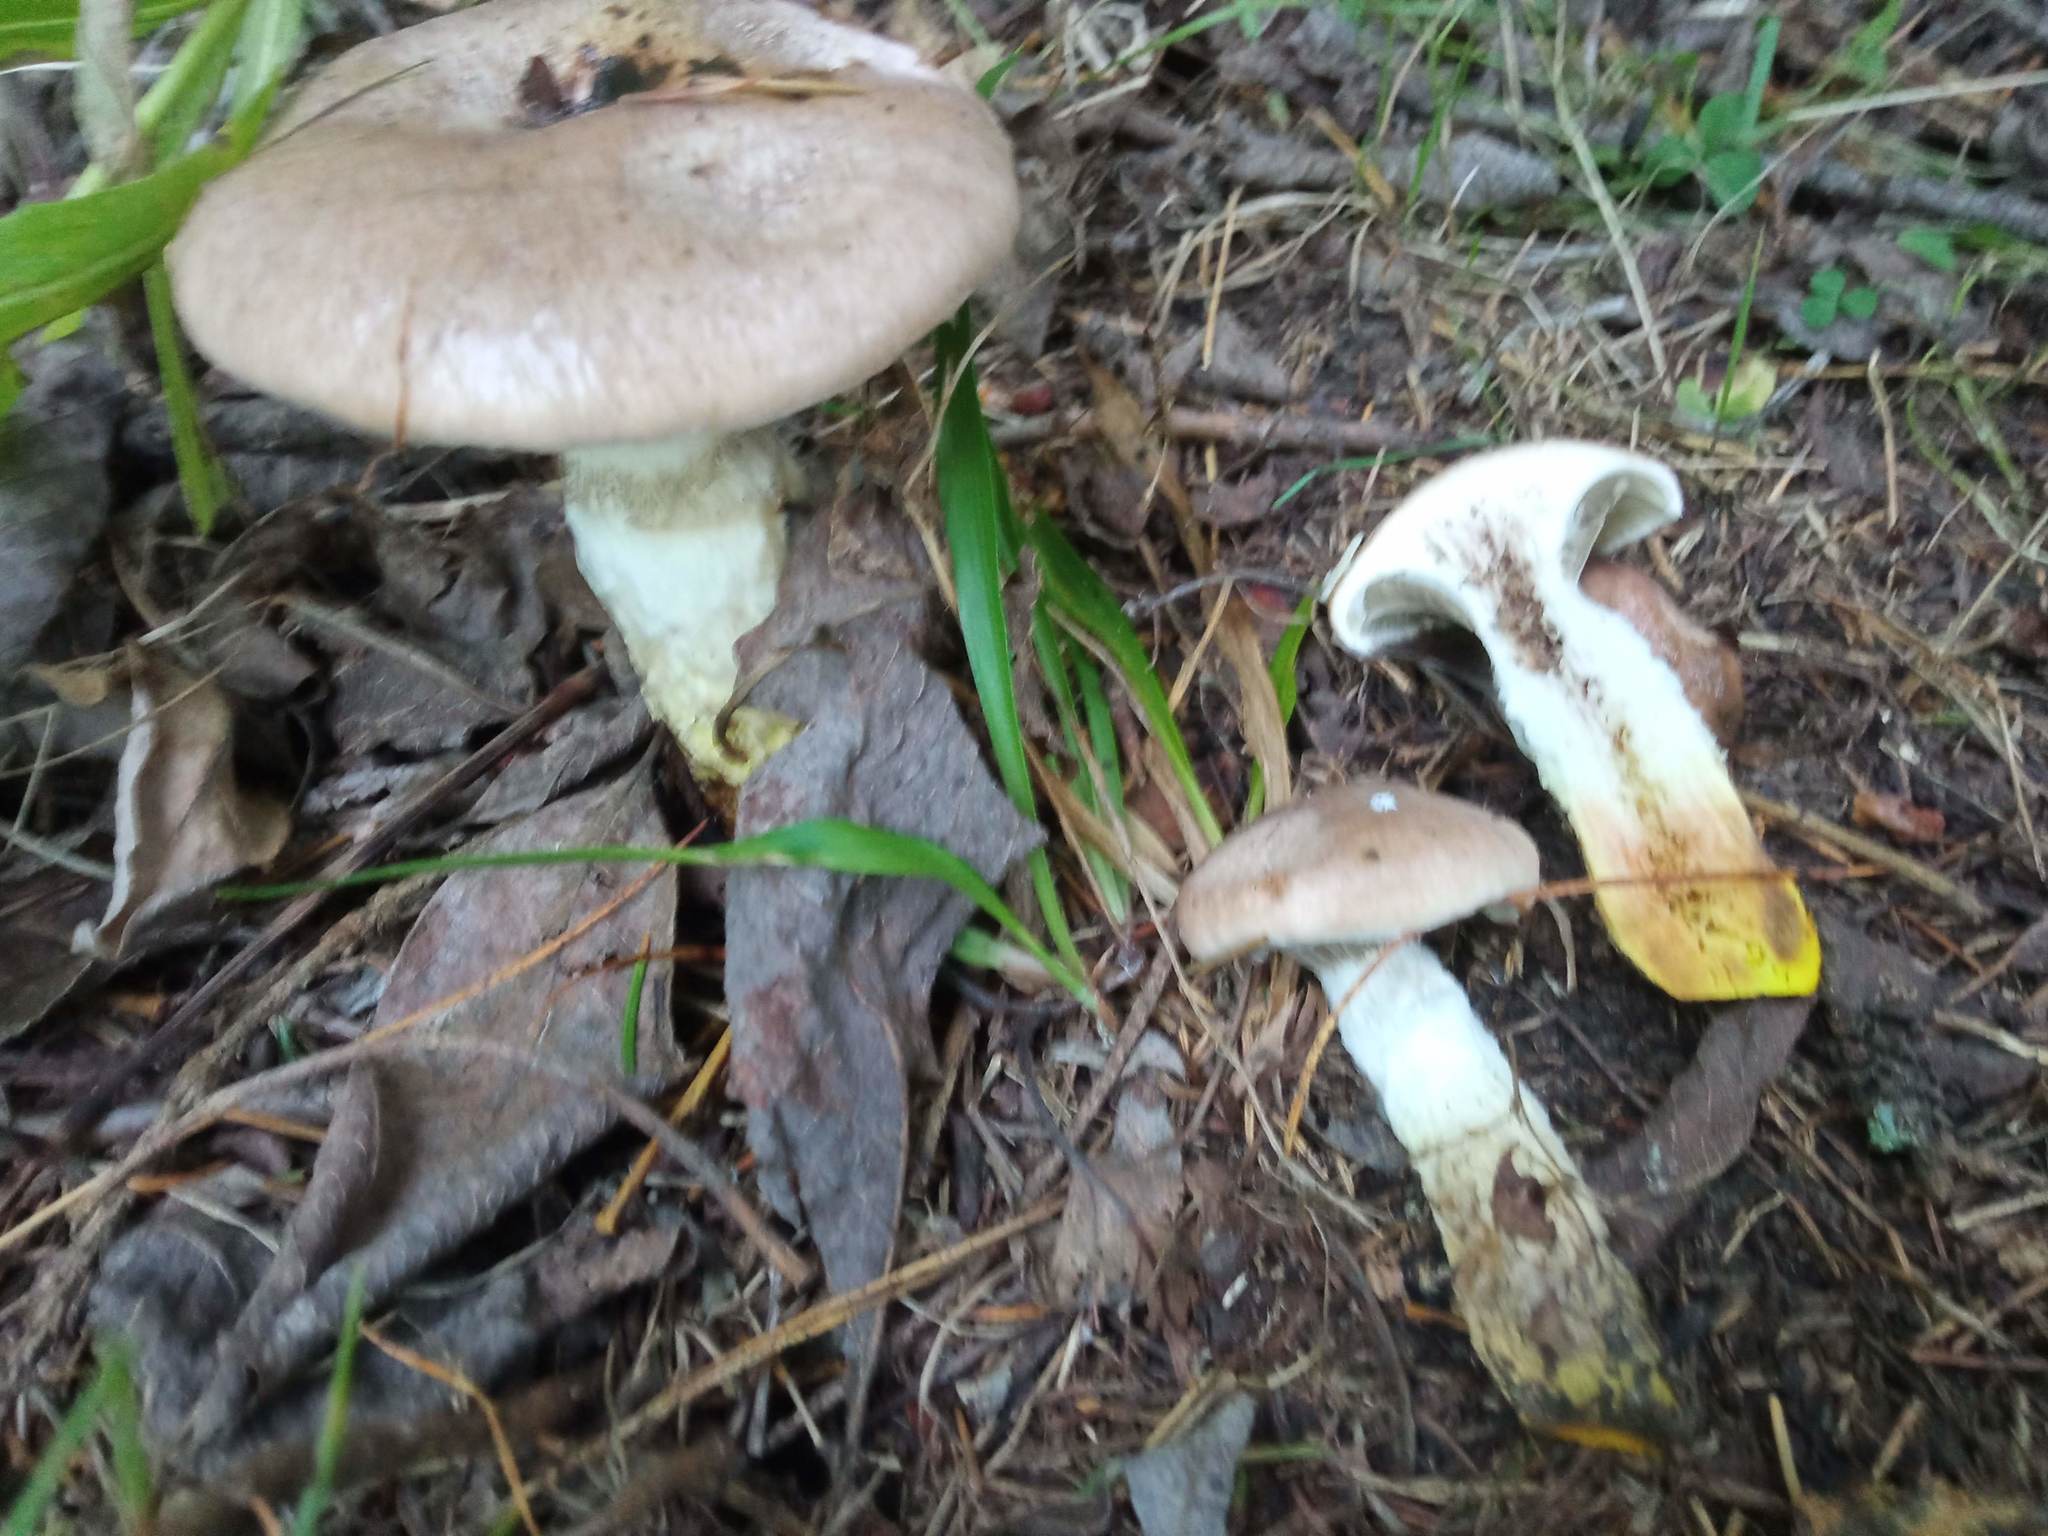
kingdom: Fungi
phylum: Basidiomycota
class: Agaricomycetes
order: Boletales
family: Gomphidiaceae
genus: Gomphidius
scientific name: Gomphidius glutinosus
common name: Slimy spike
